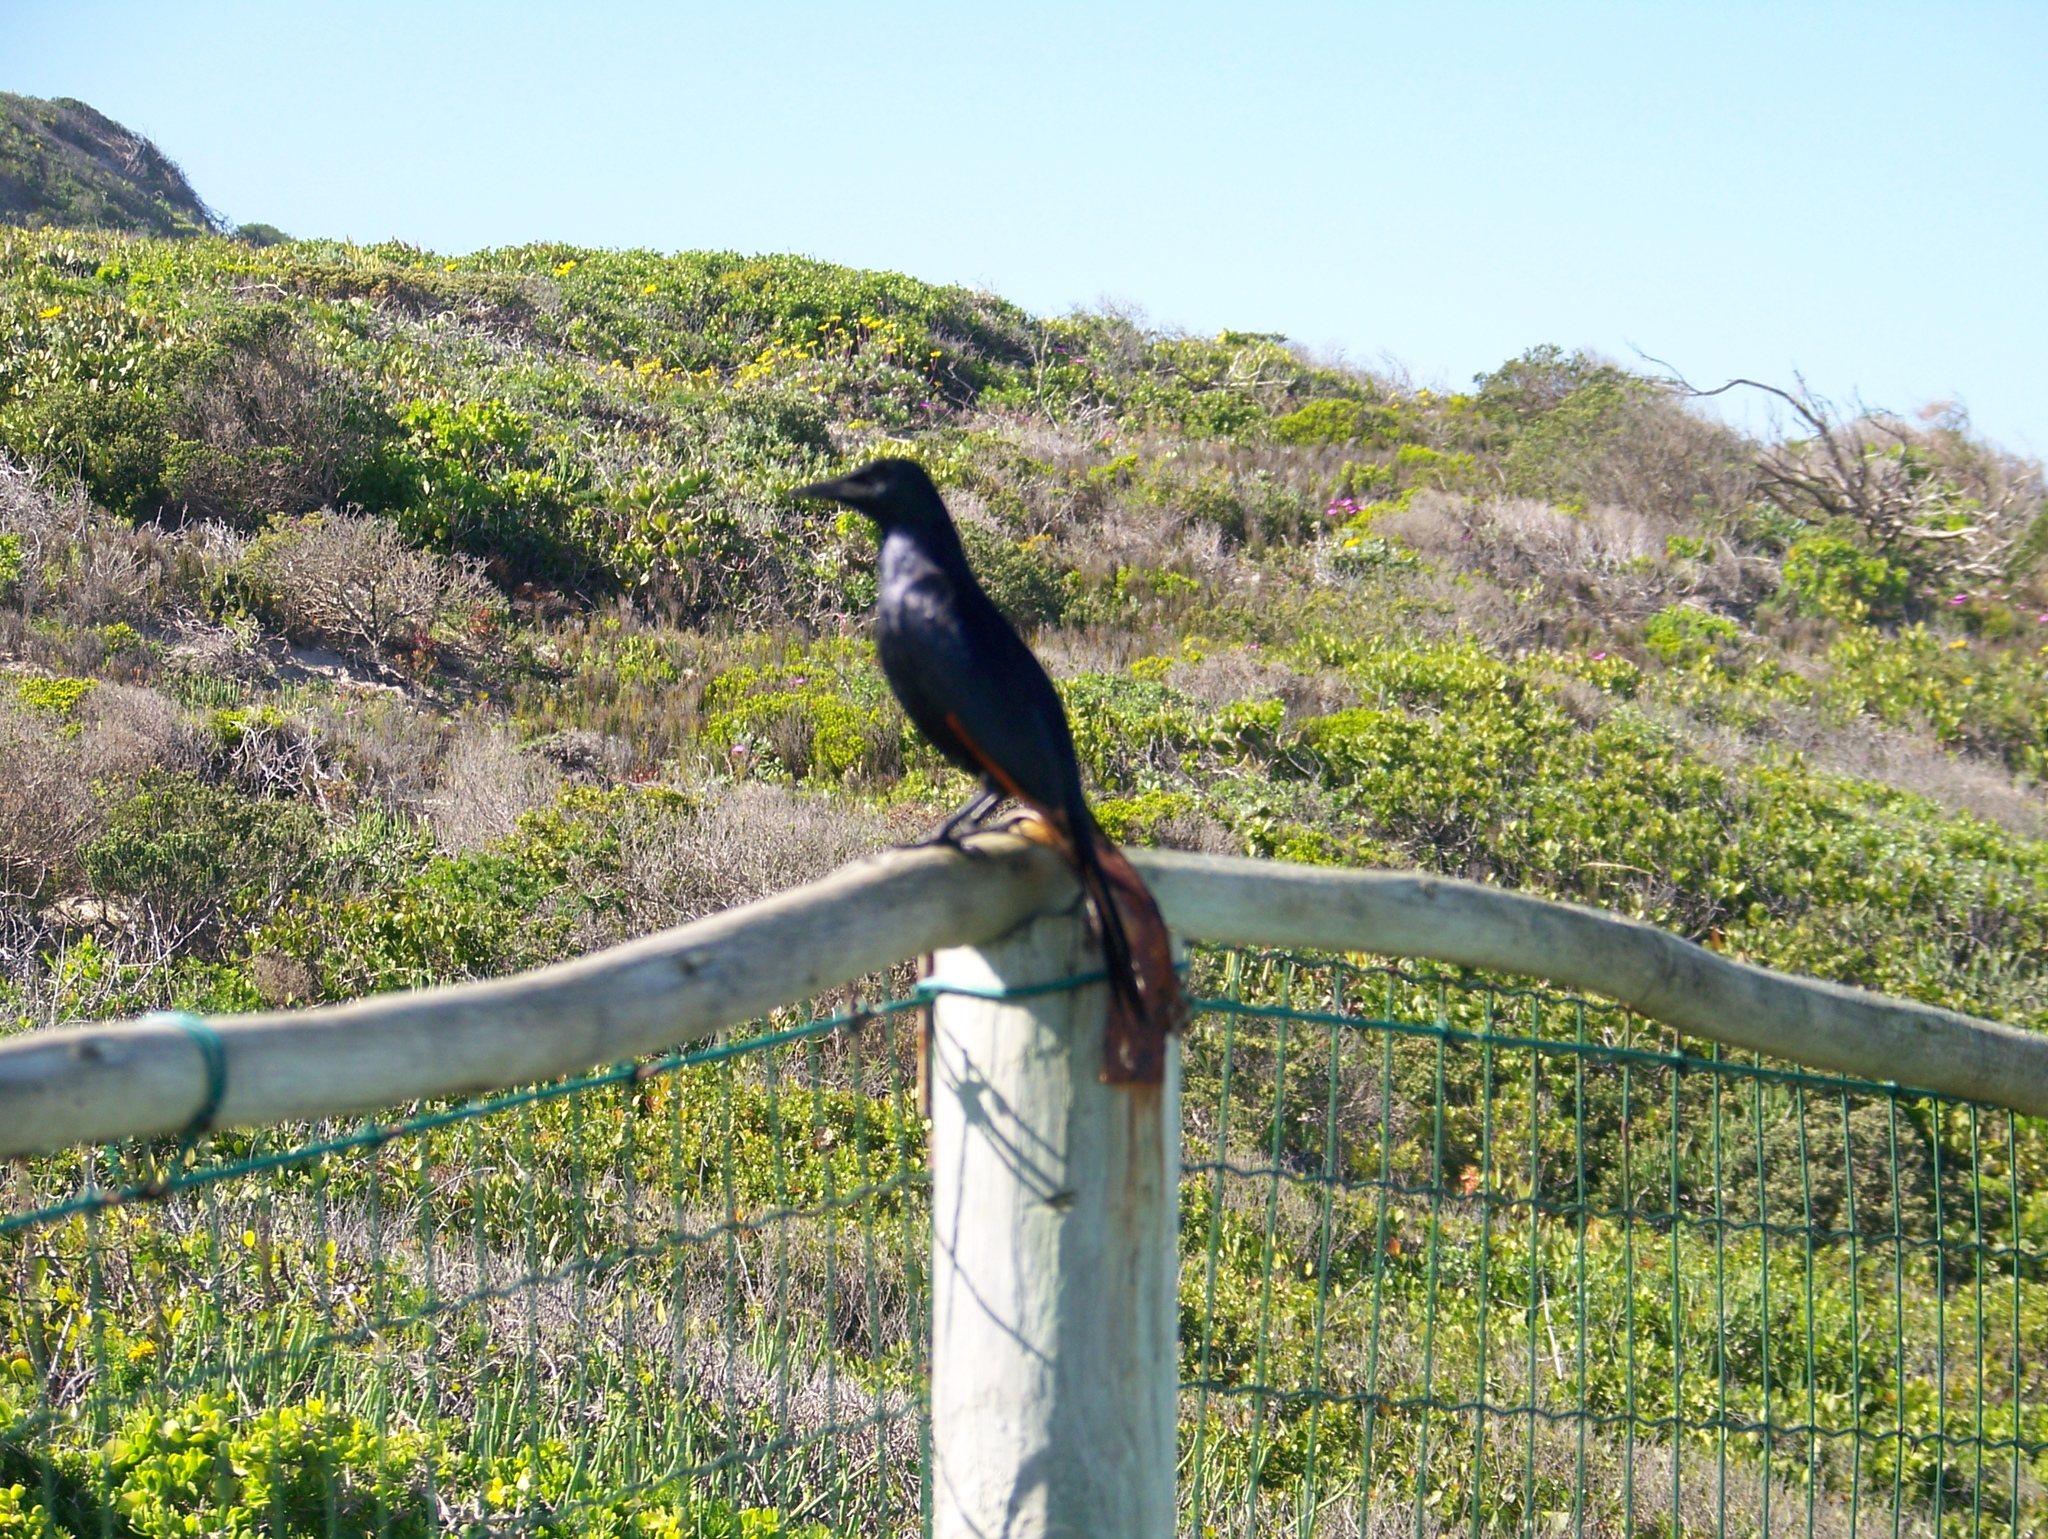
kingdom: Animalia
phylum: Chordata
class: Aves
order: Passeriformes
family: Sturnidae
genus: Onychognathus
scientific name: Onychognathus morio
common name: Red-winged starling
